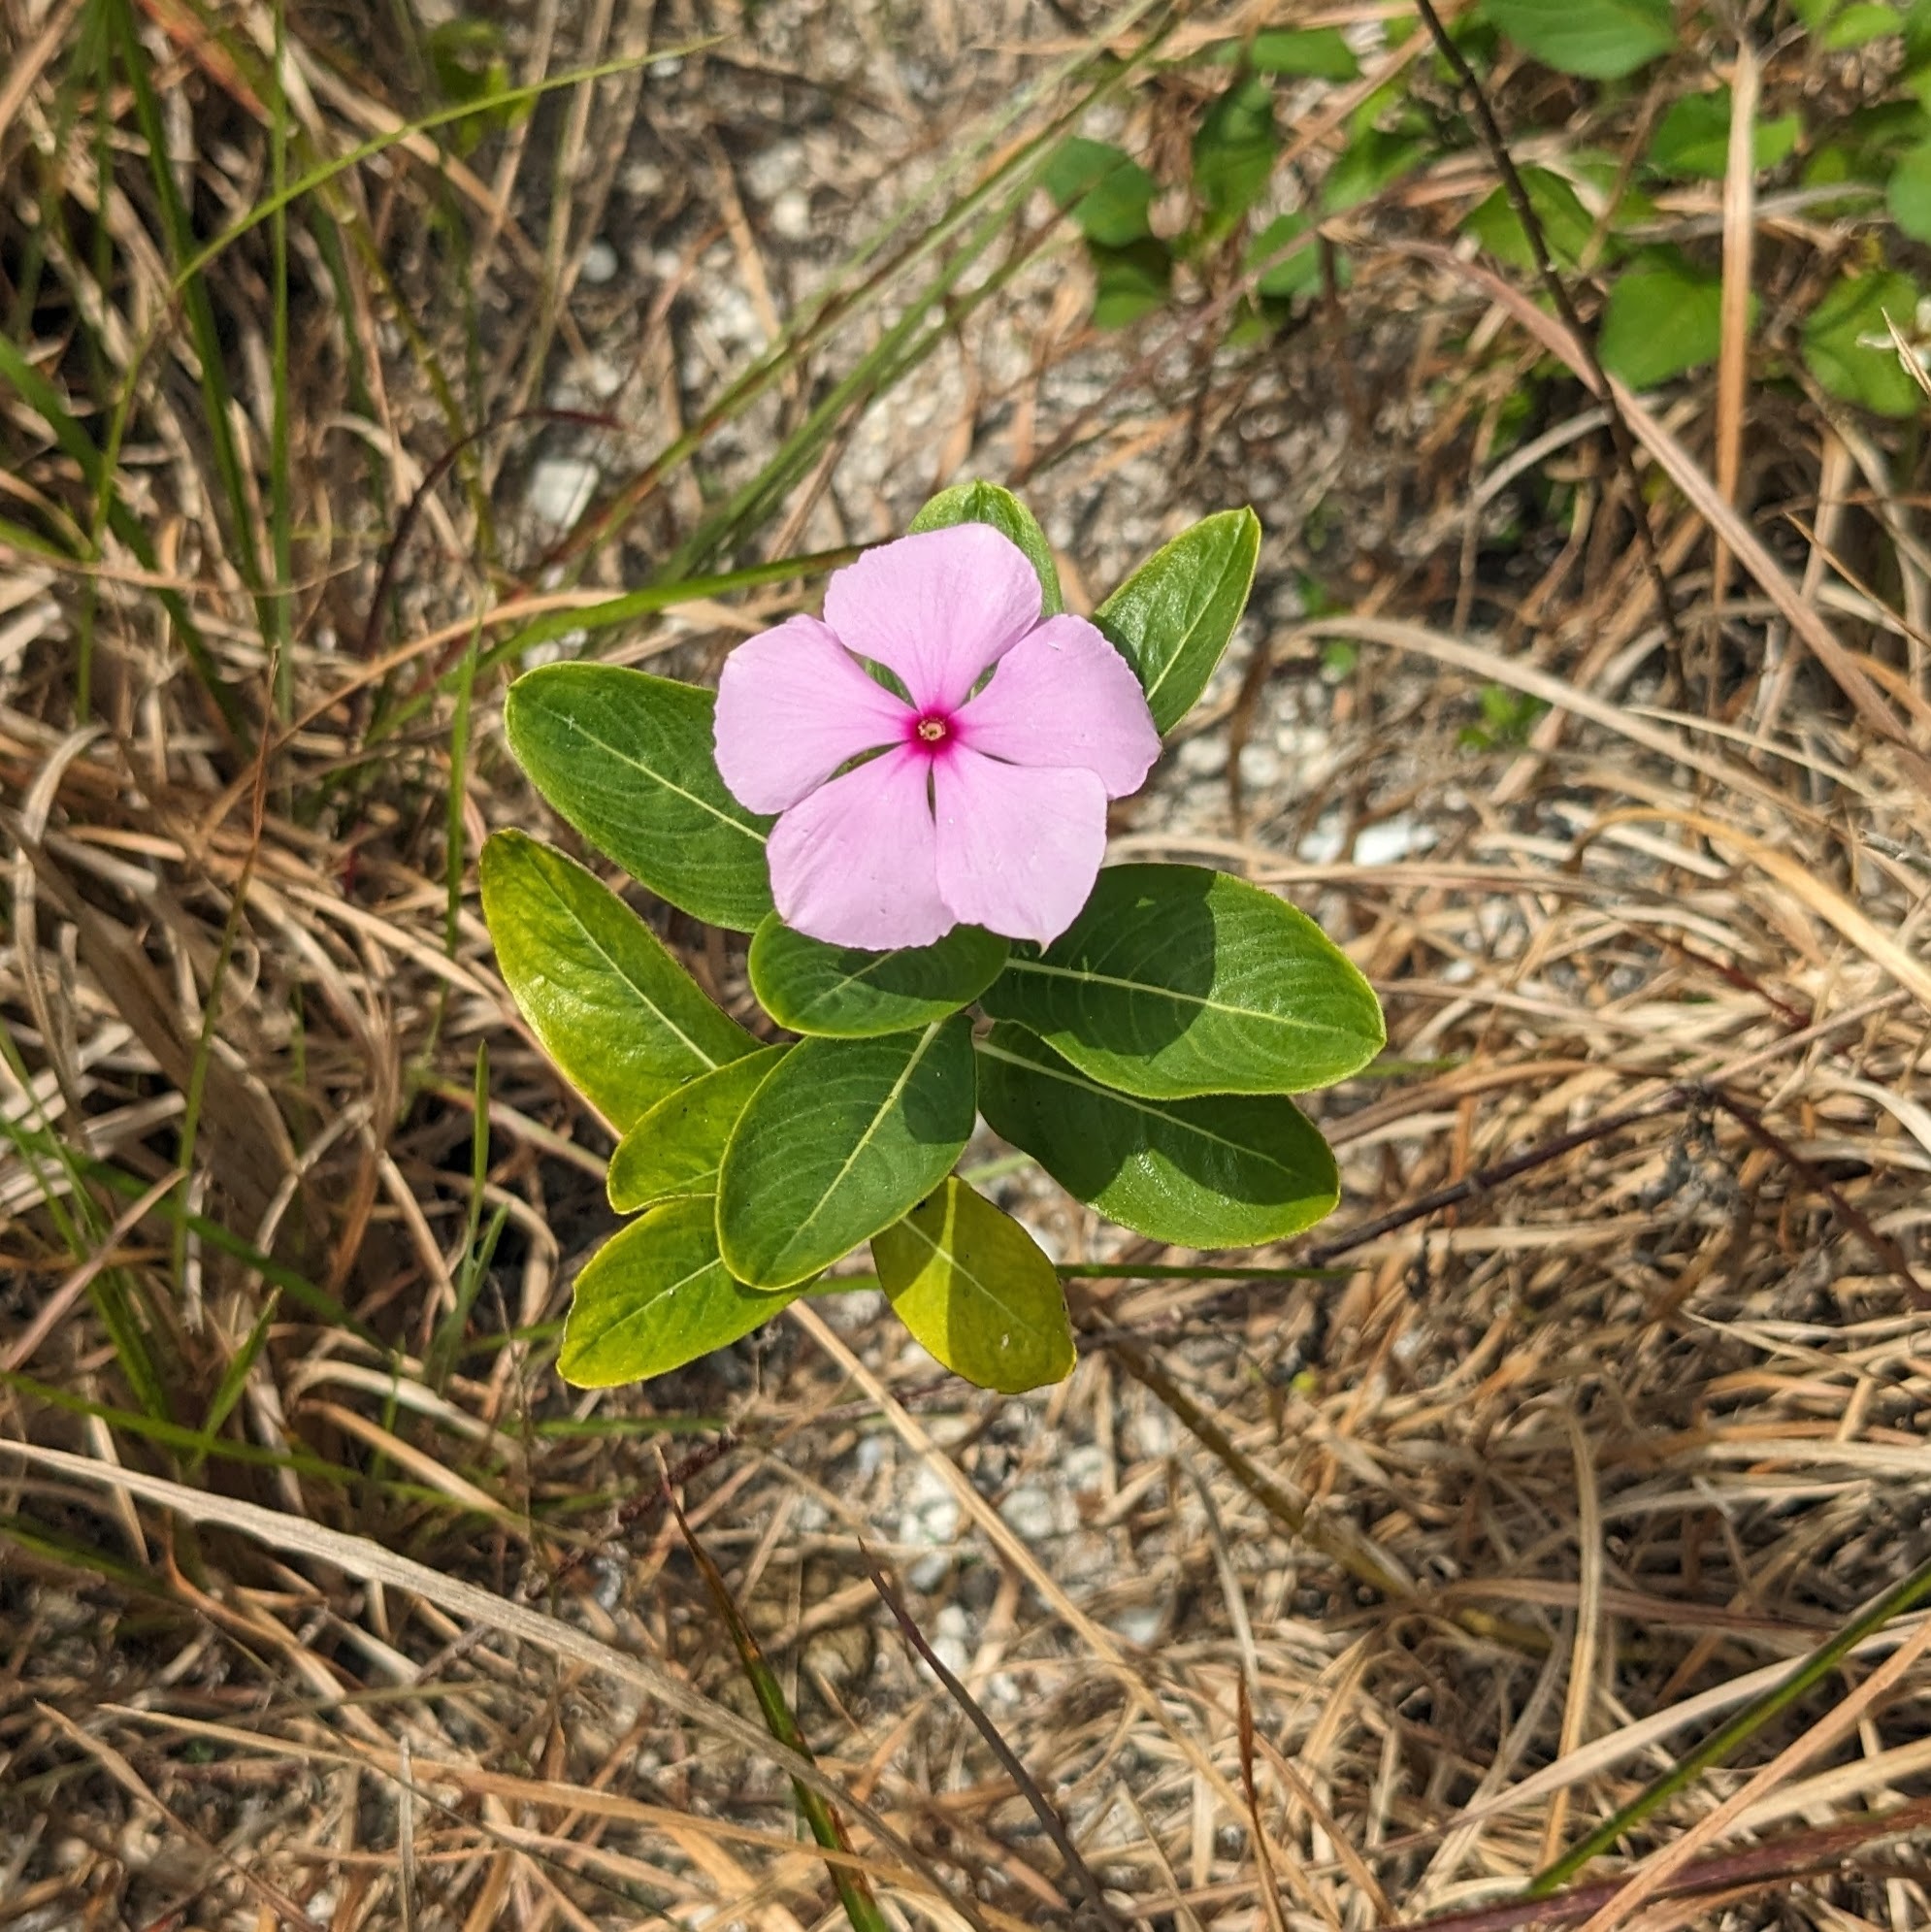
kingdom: Plantae
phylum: Tracheophyta
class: Magnoliopsida
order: Gentianales
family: Apocynaceae
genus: Catharanthus
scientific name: Catharanthus roseus
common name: Madagascar periwinkle
